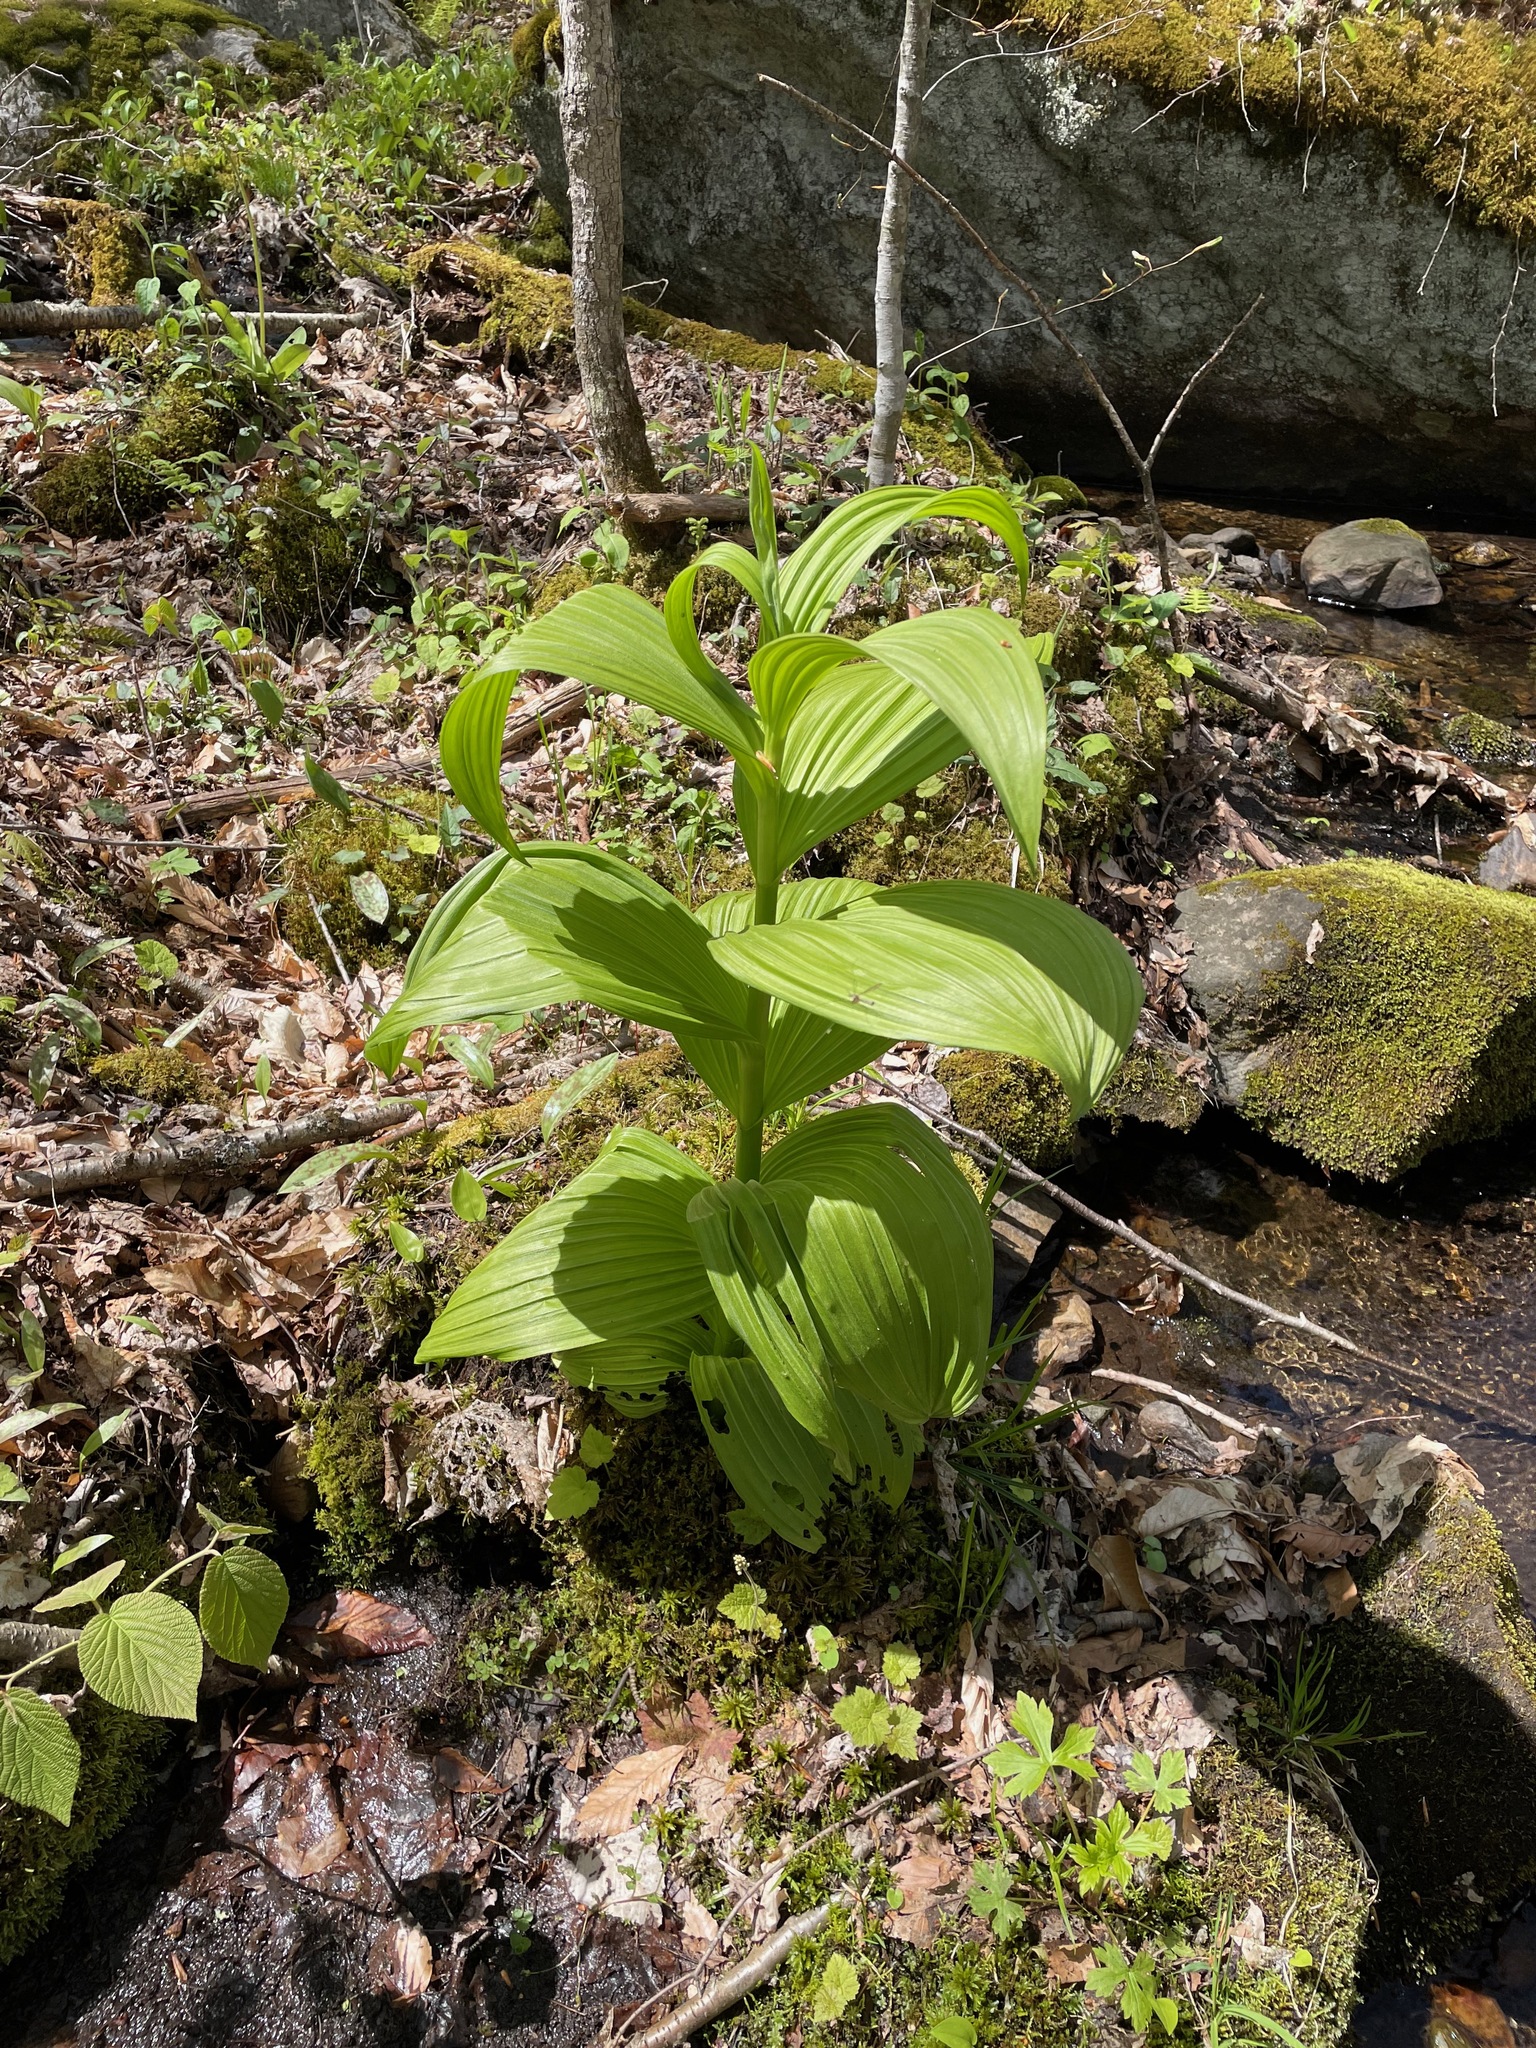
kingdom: Plantae
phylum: Tracheophyta
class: Liliopsida
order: Liliales
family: Melanthiaceae
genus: Veratrum
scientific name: Veratrum viride
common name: American false hellebore
